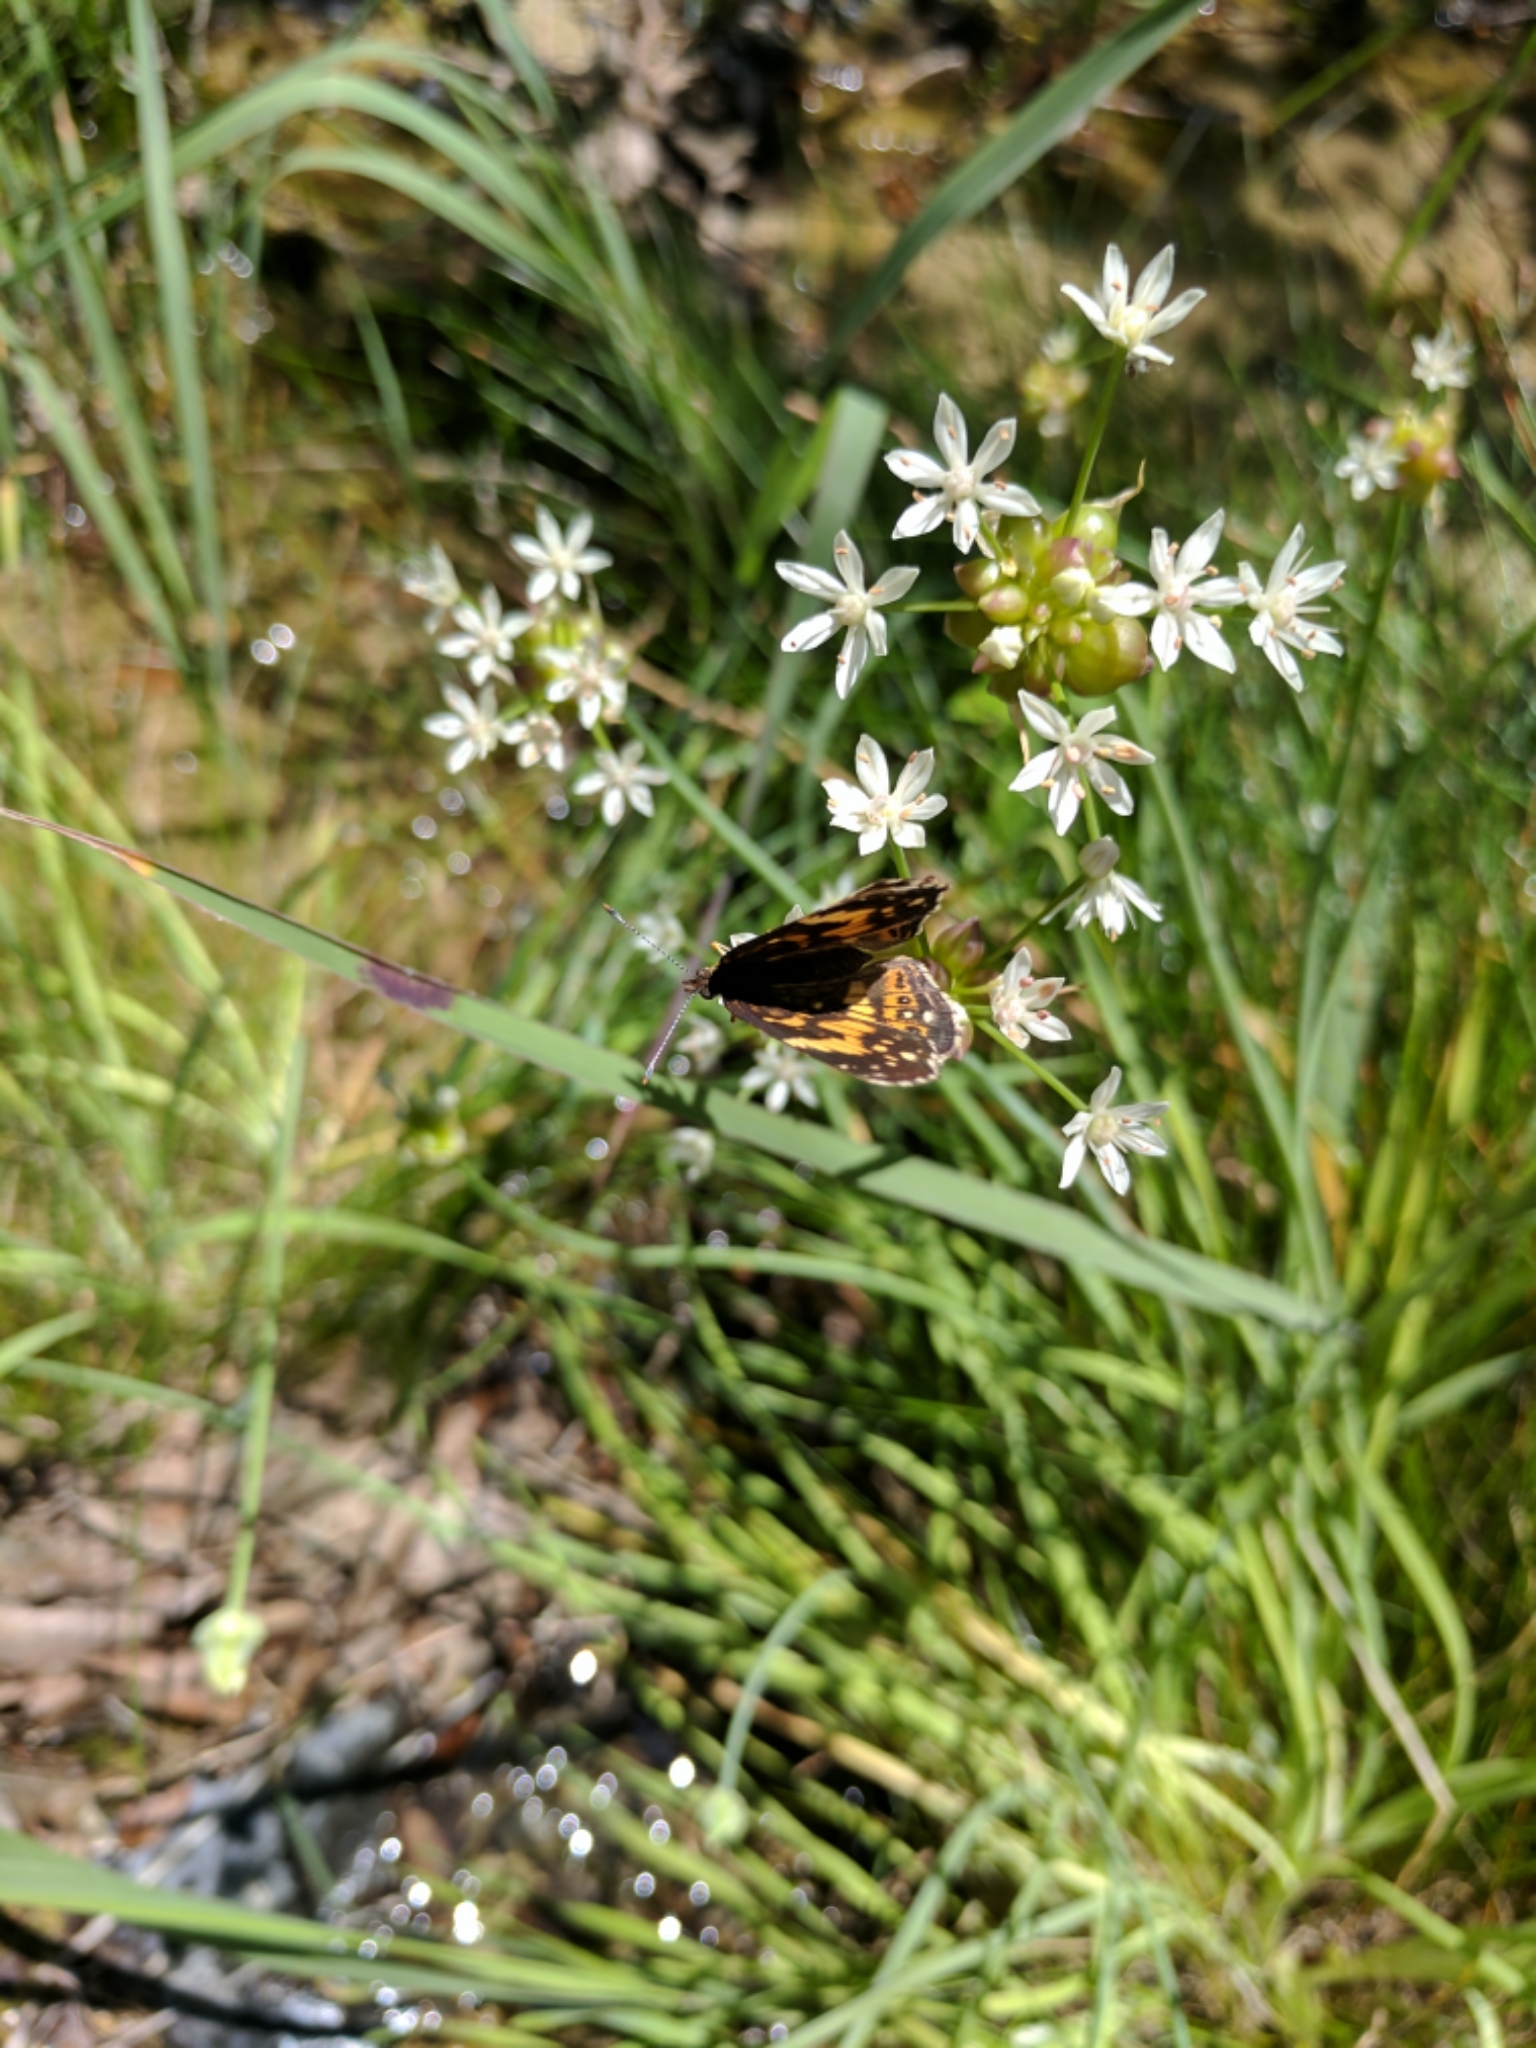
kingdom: Plantae
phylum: Tracheophyta
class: Liliopsida
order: Asparagales
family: Amaryllidaceae
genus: Allium
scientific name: Allium canadense
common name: Meadow garlic
